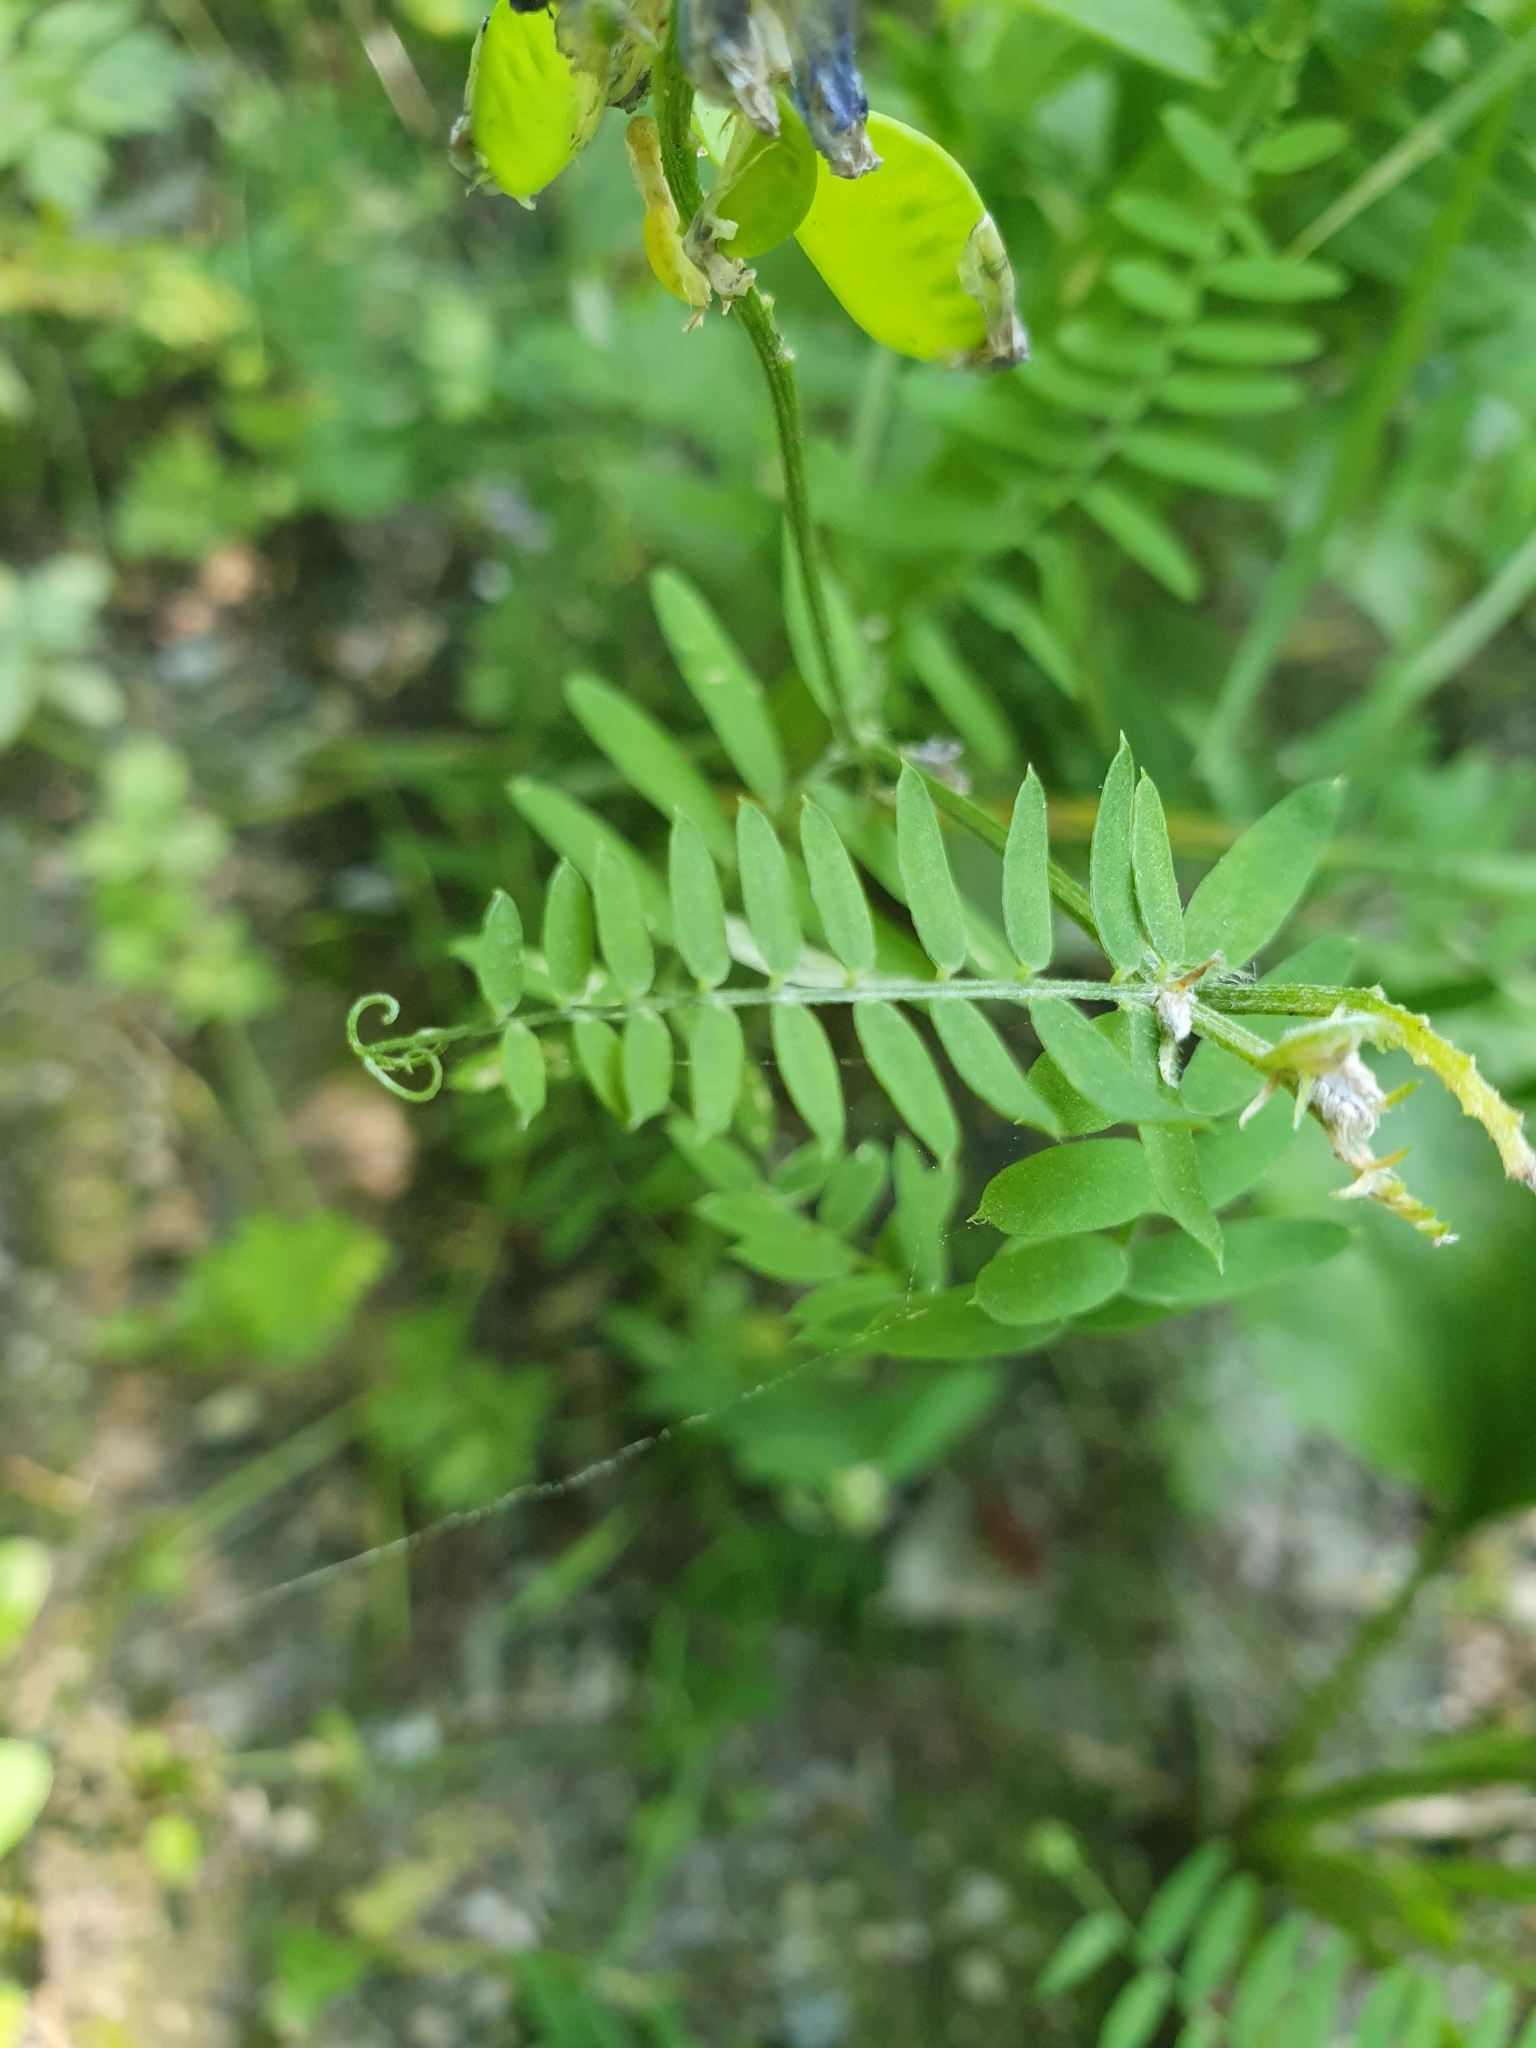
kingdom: Plantae
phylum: Tracheophyta
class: Magnoliopsida
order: Fabales
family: Fabaceae
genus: Vicia
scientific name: Vicia cracca
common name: Bird vetch
